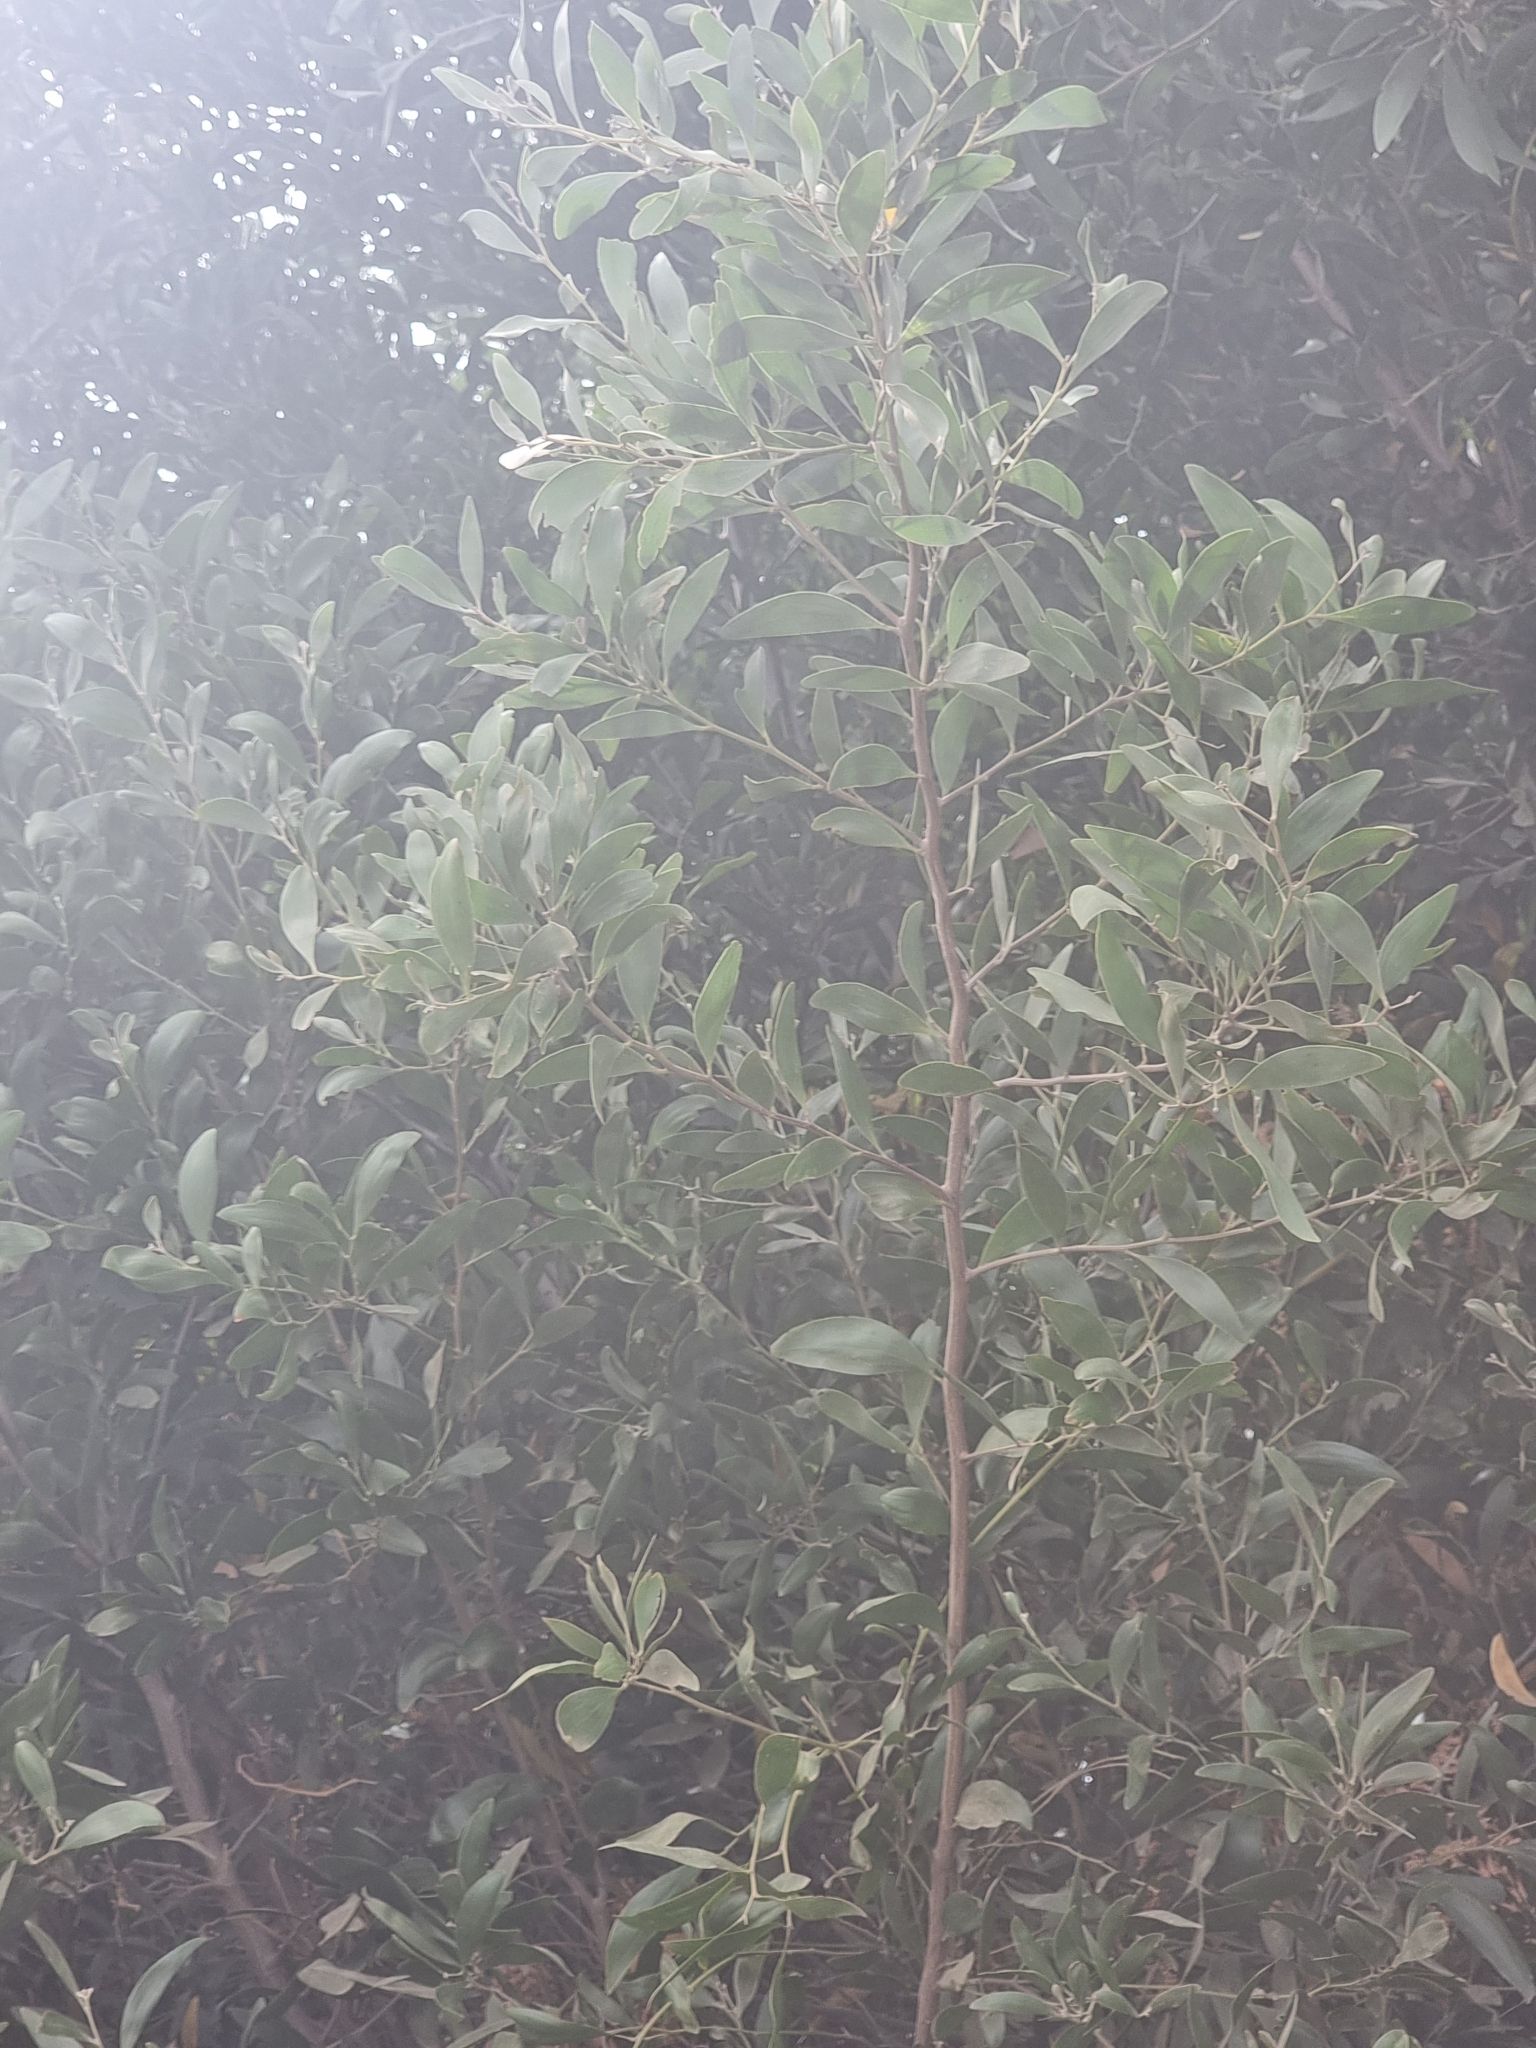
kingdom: Plantae
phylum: Tracheophyta
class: Magnoliopsida
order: Fabales
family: Fabaceae
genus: Acacia
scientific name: Acacia melanoxylon
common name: Blackwood
